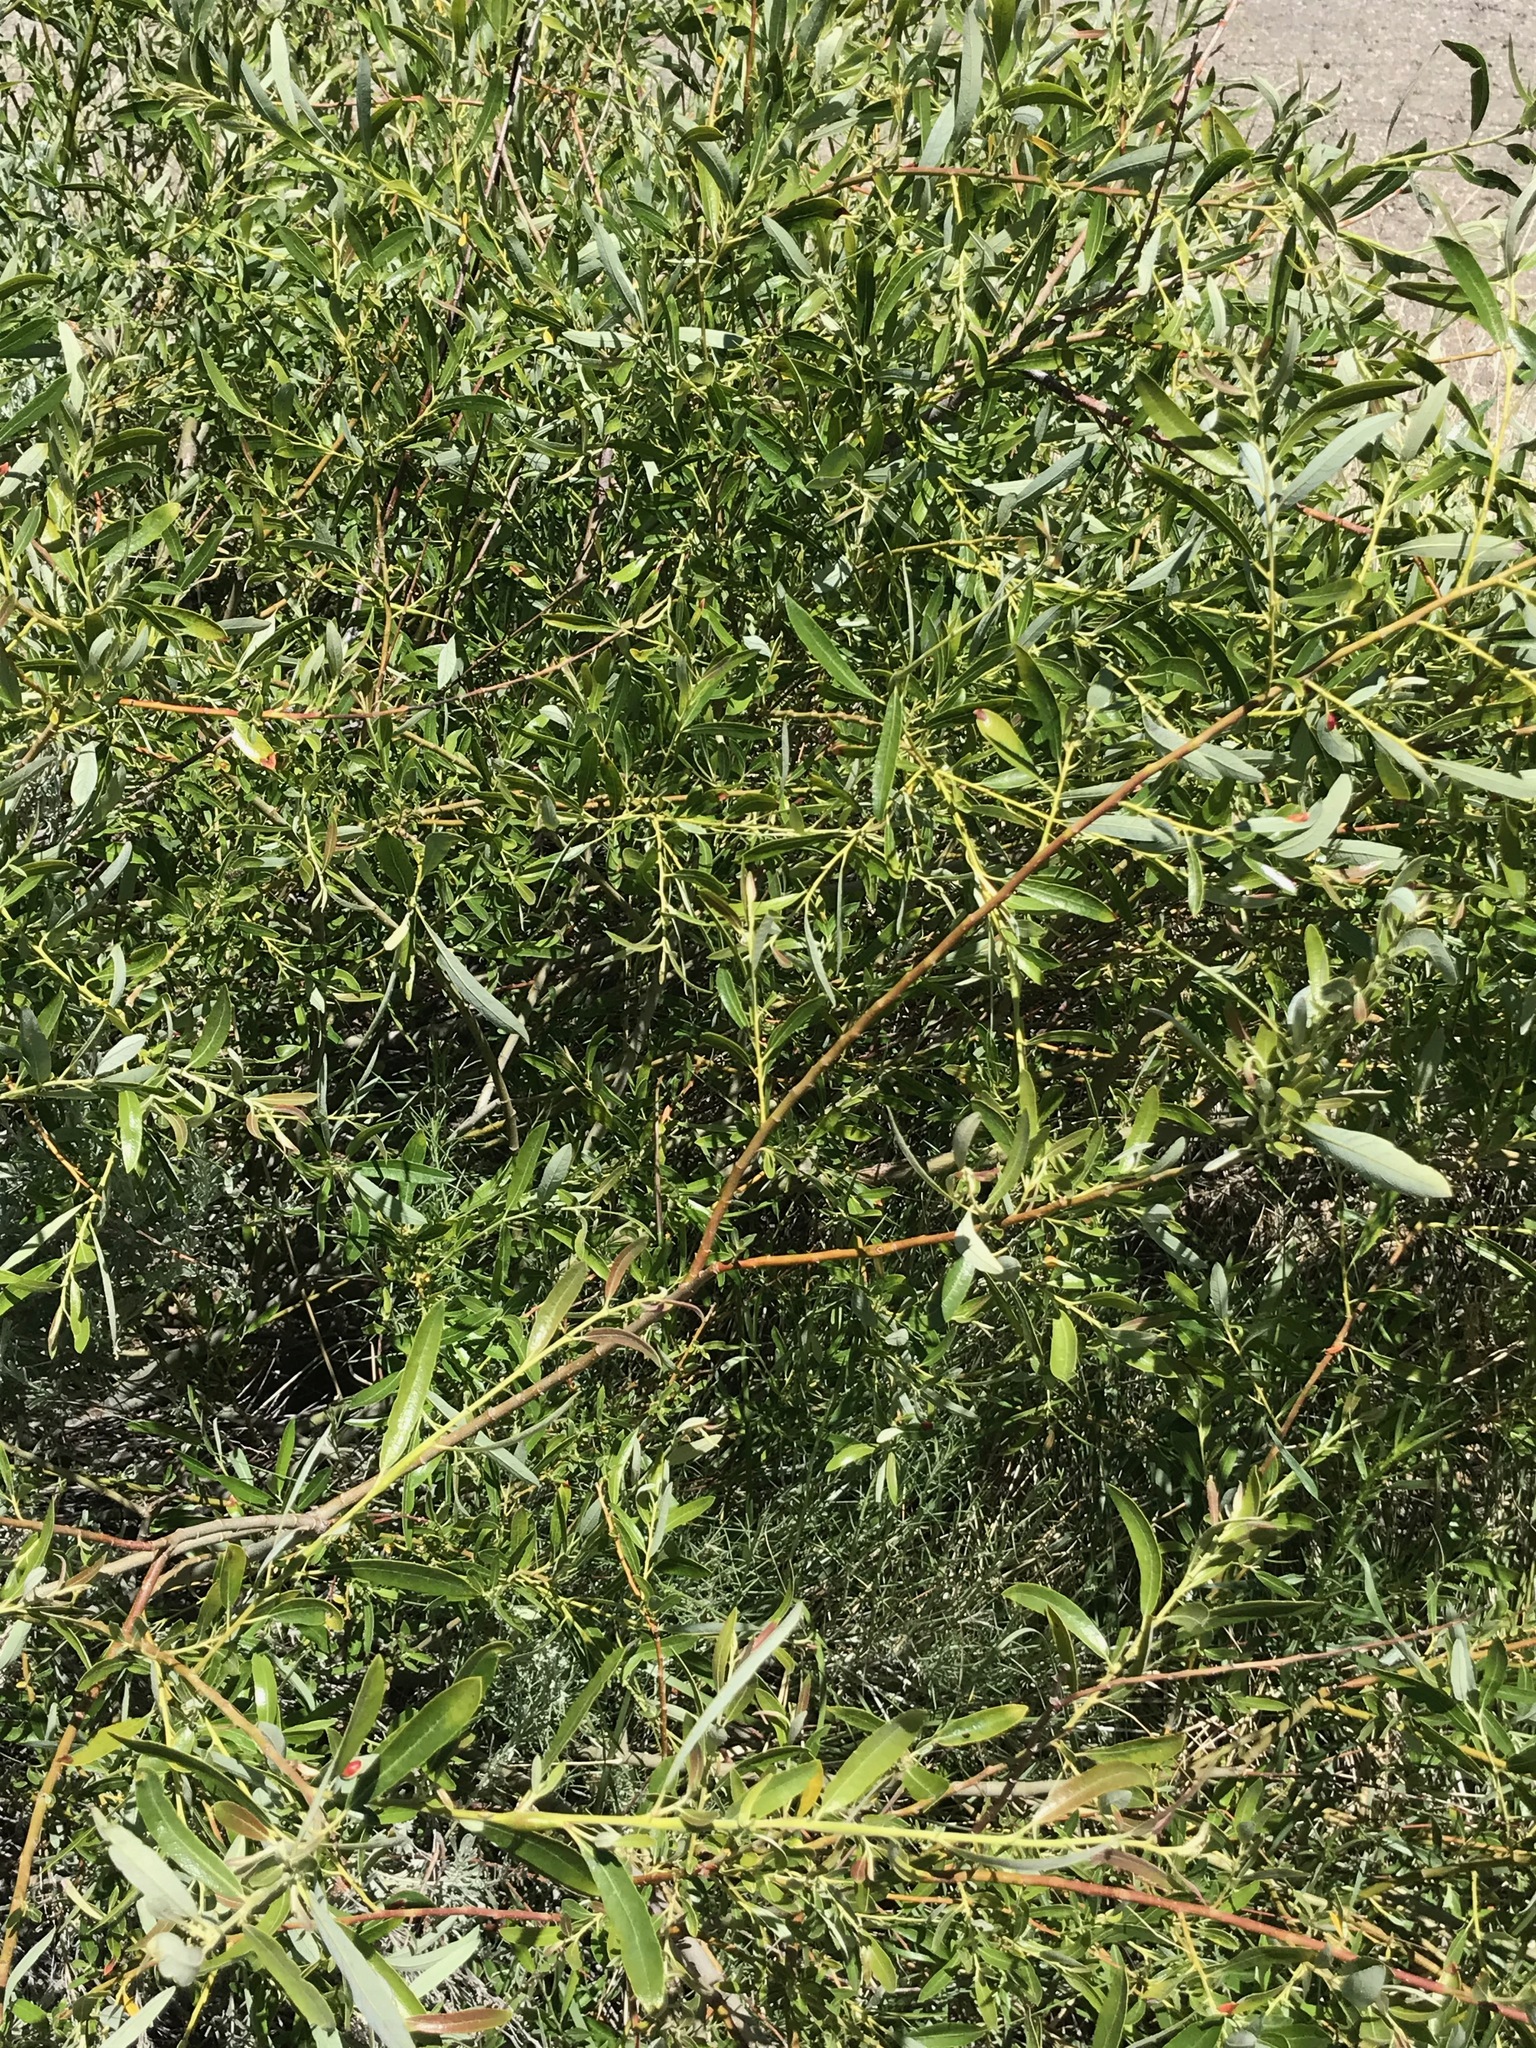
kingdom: Plantae
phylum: Tracheophyta
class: Magnoliopsida
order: Malpighiales
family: Salicaceae
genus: Salix
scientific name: Salix lasiolepis
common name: Arroyo willow
